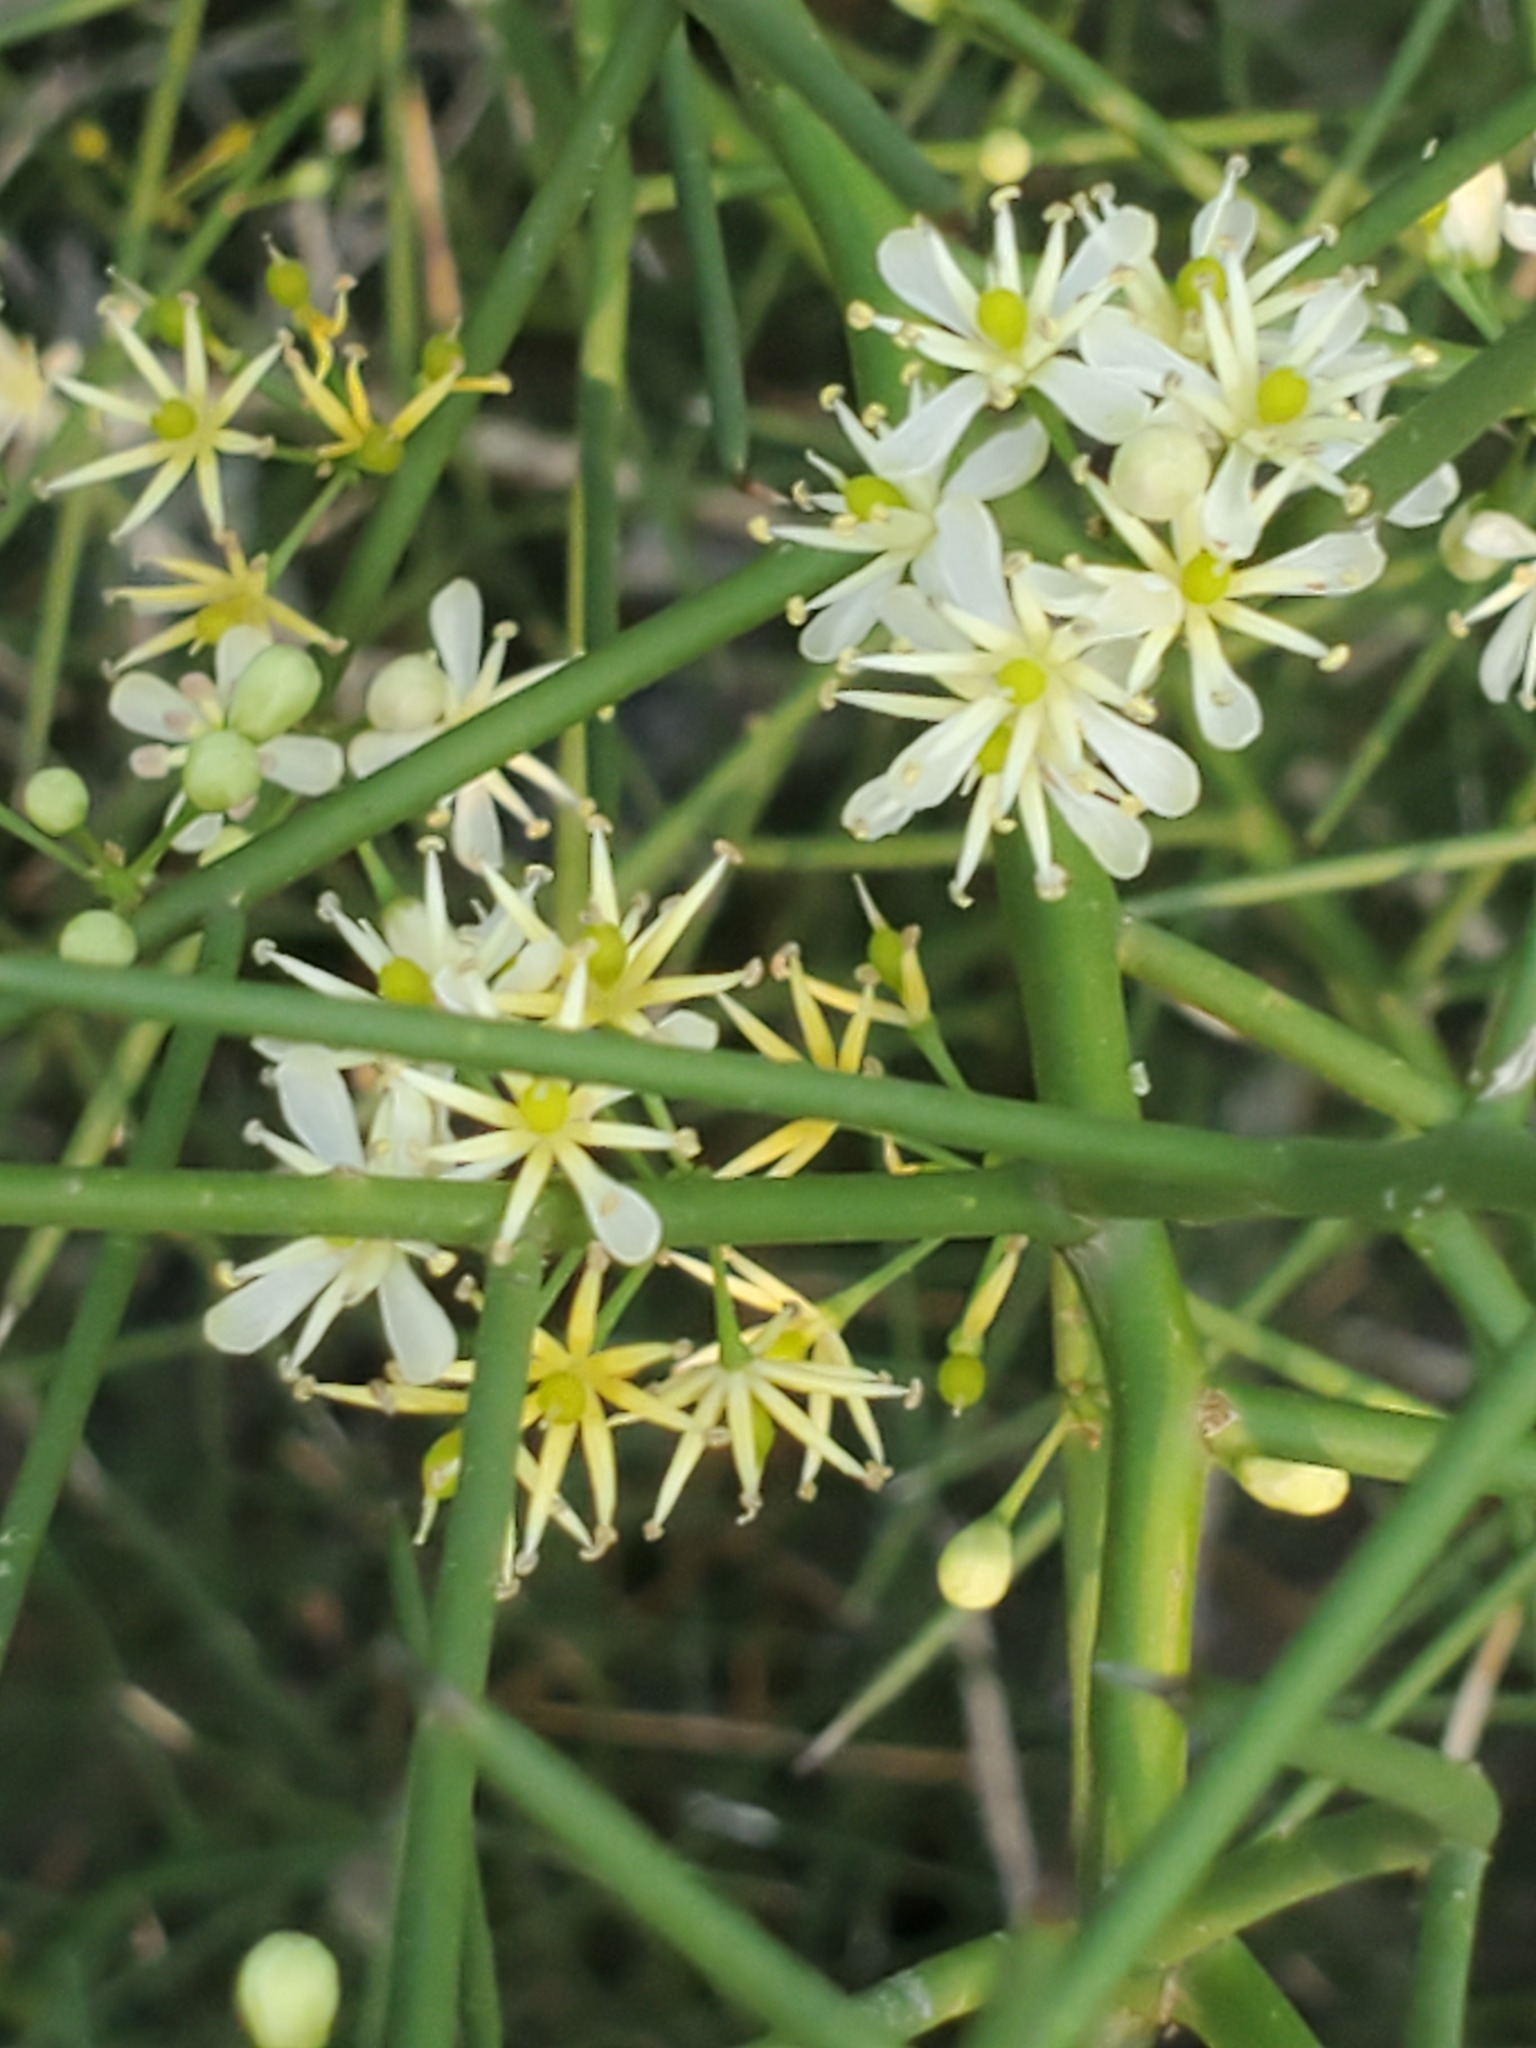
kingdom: Plantae
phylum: Tracheophyta
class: Magnoliopsida
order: Brassicales
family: Koeberliniaceae
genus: Koeberlinia
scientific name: Koeberlinia spinosa
